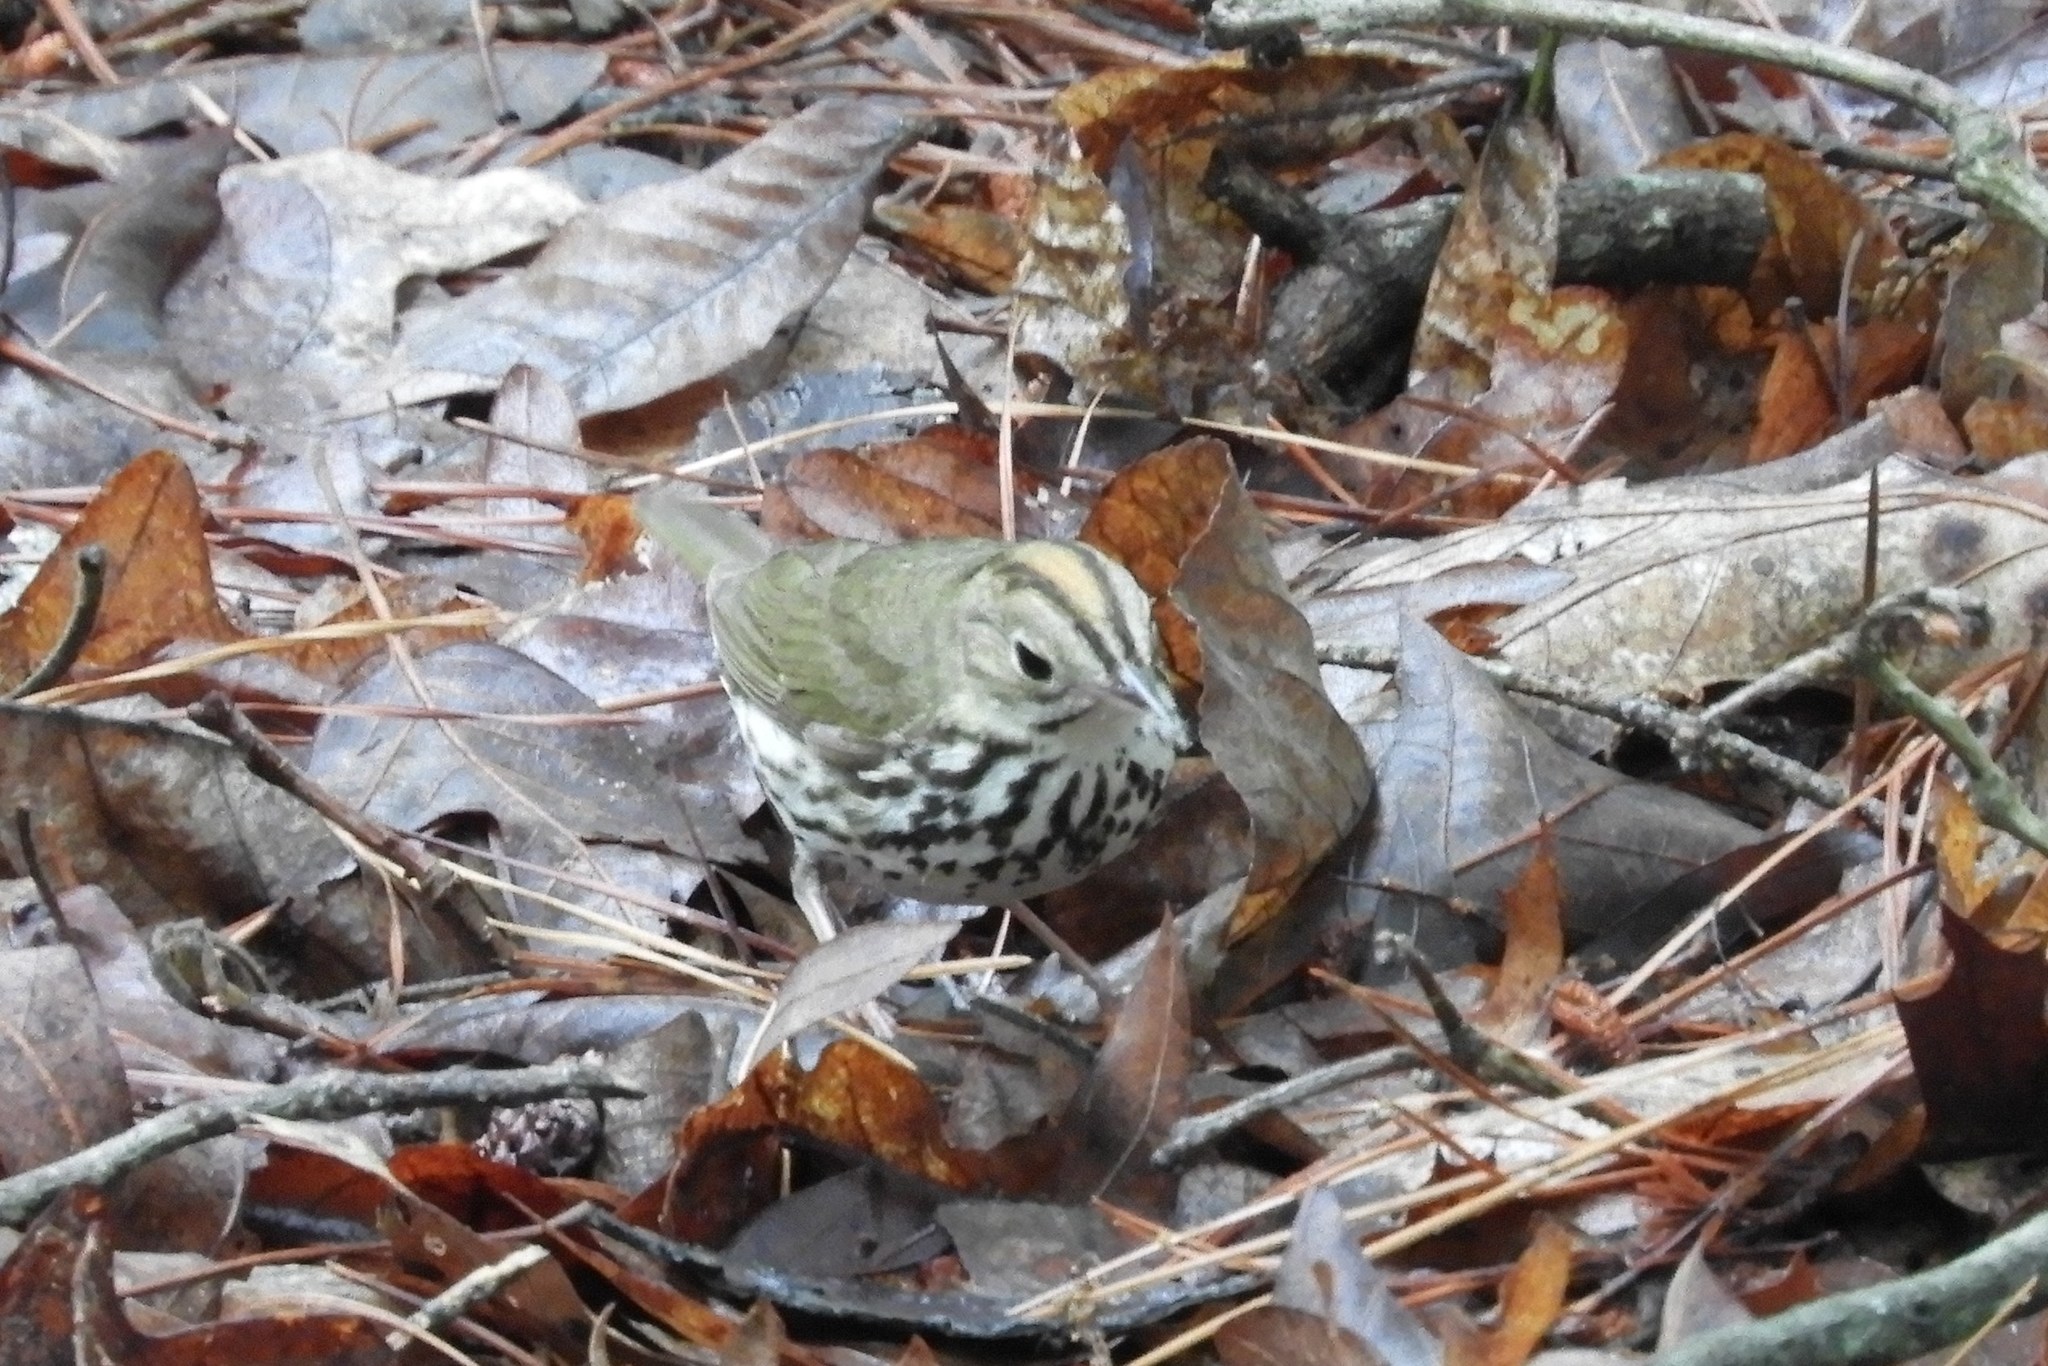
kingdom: Animalia
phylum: Chordata
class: Aves
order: Passeriformes
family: Parulidae
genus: Seiurus
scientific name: Seiurus aurocapilla
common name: Ovenbird
